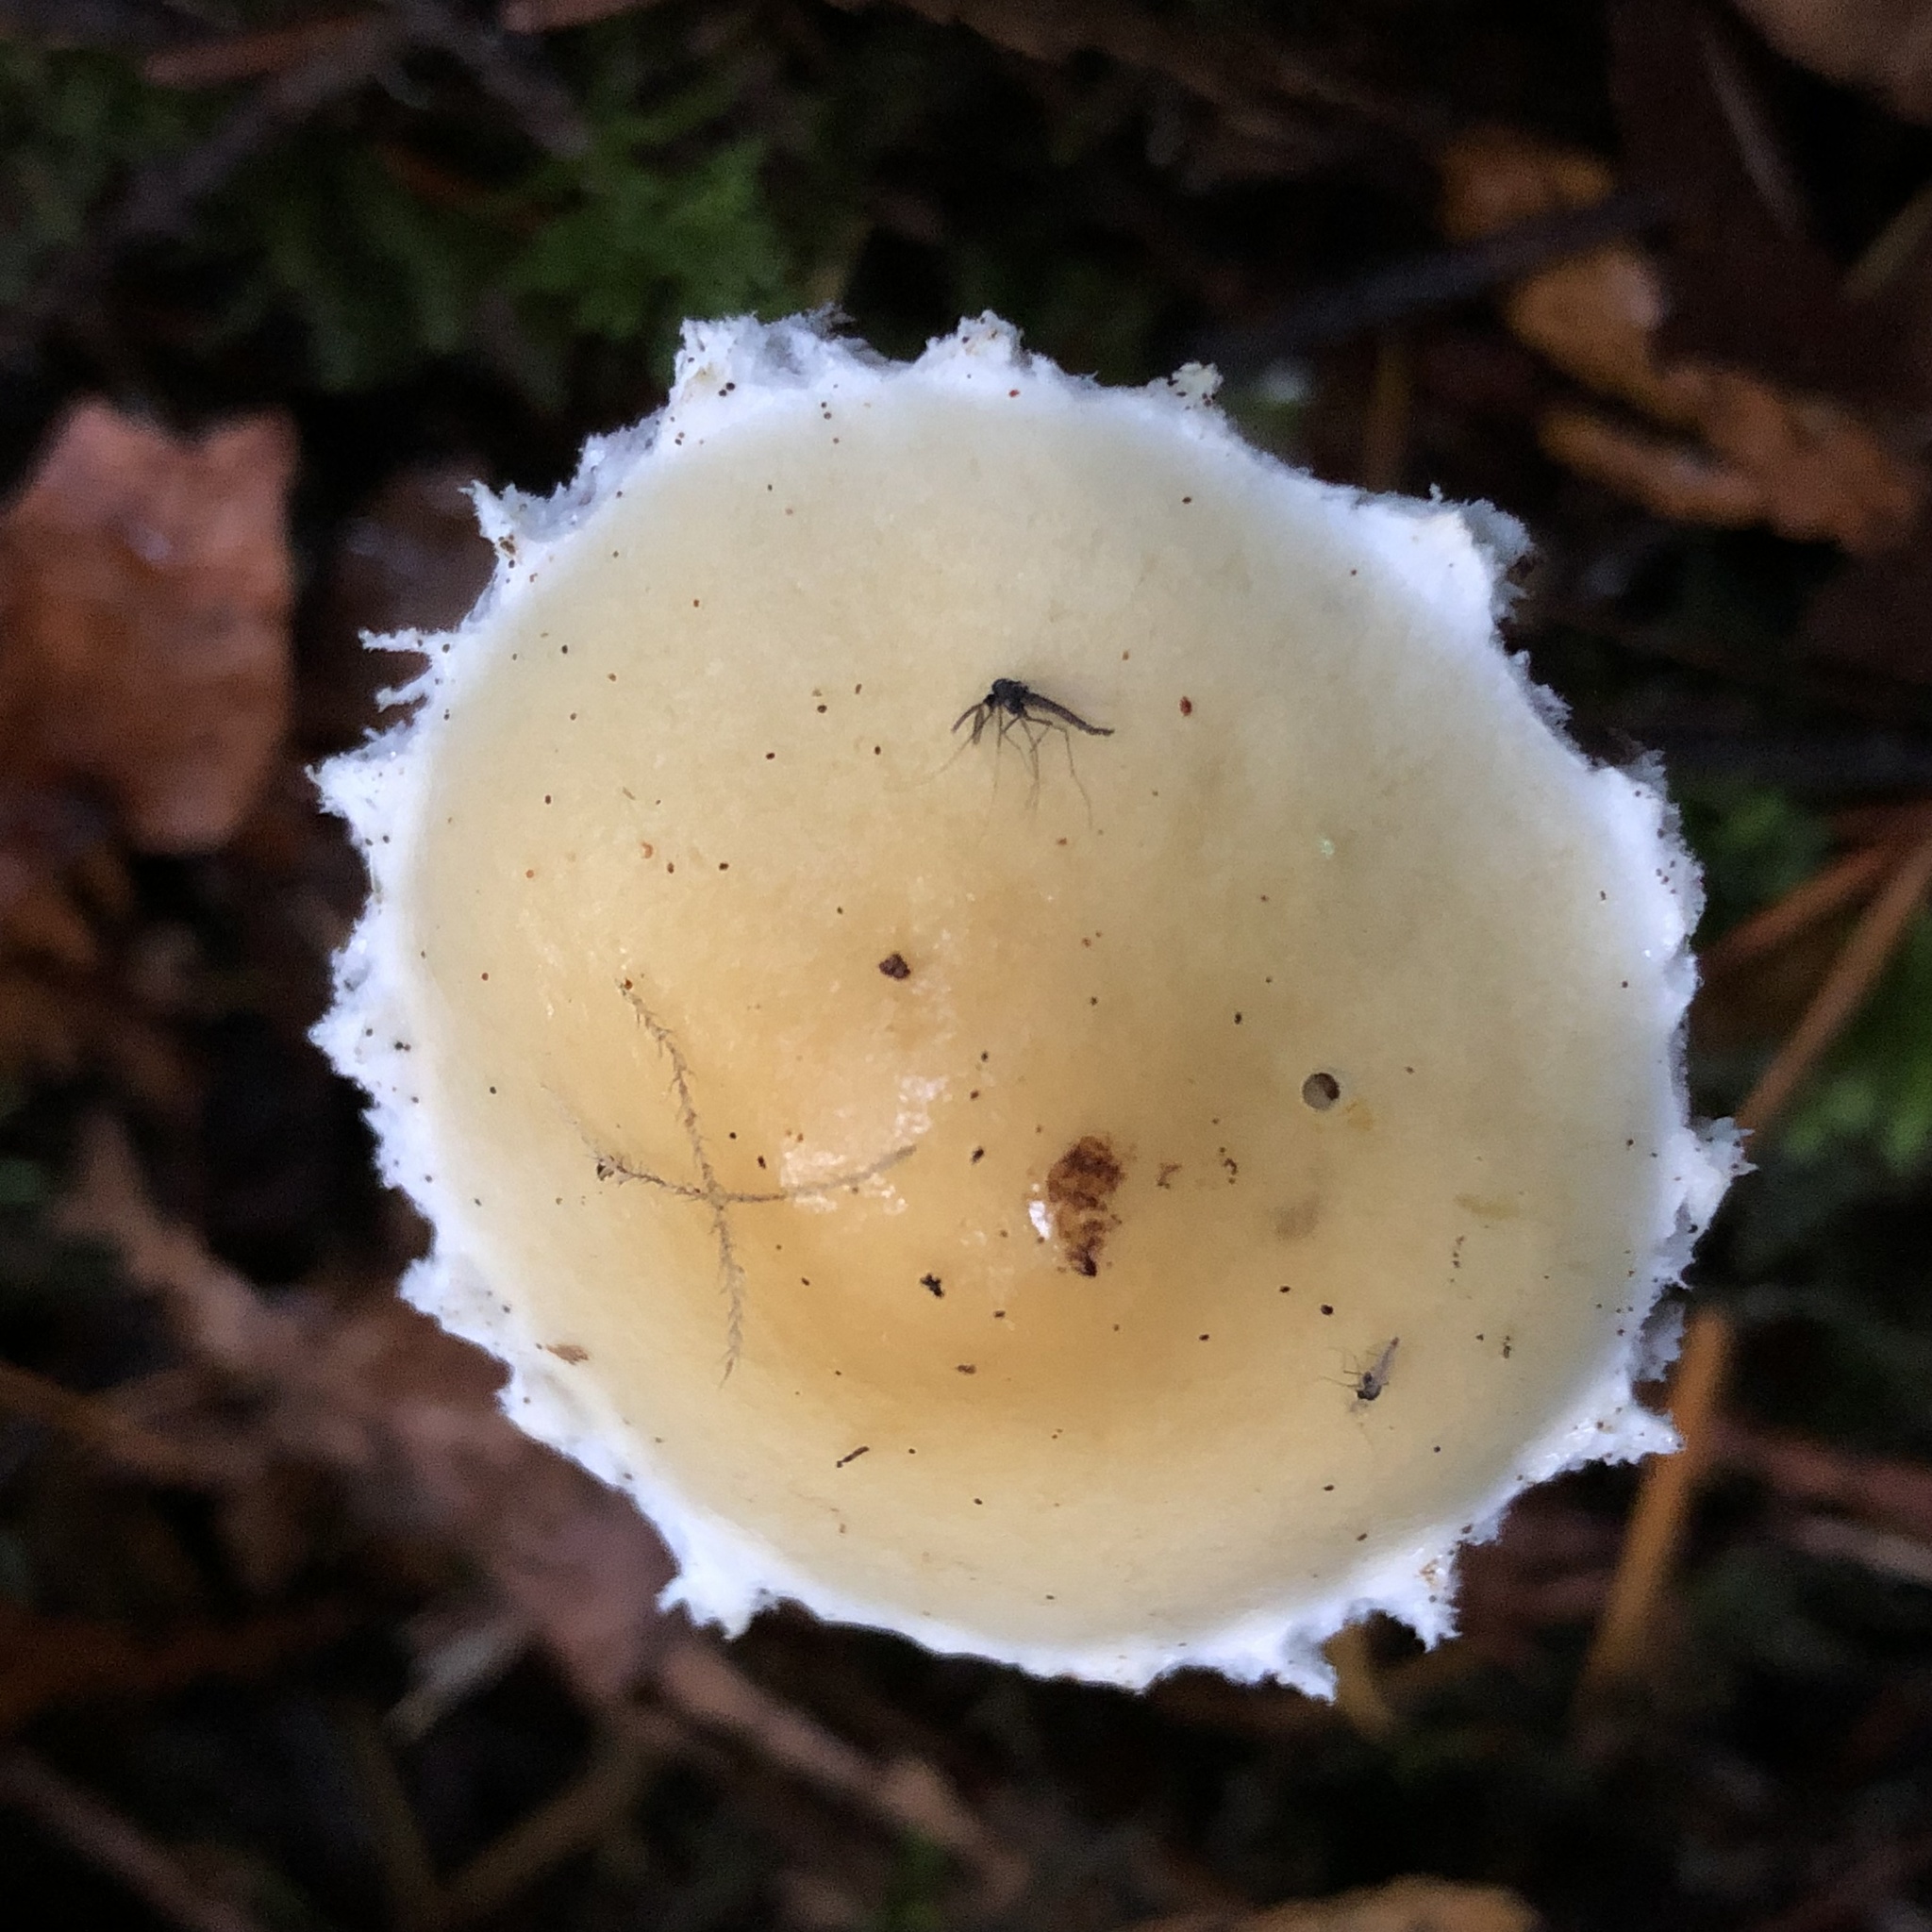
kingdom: Fungi
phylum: Basidiomycota
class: Agaricomycetes
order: Agaricales
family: Strophariaceae
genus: Stropharia
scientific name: Stropharia ambigua
